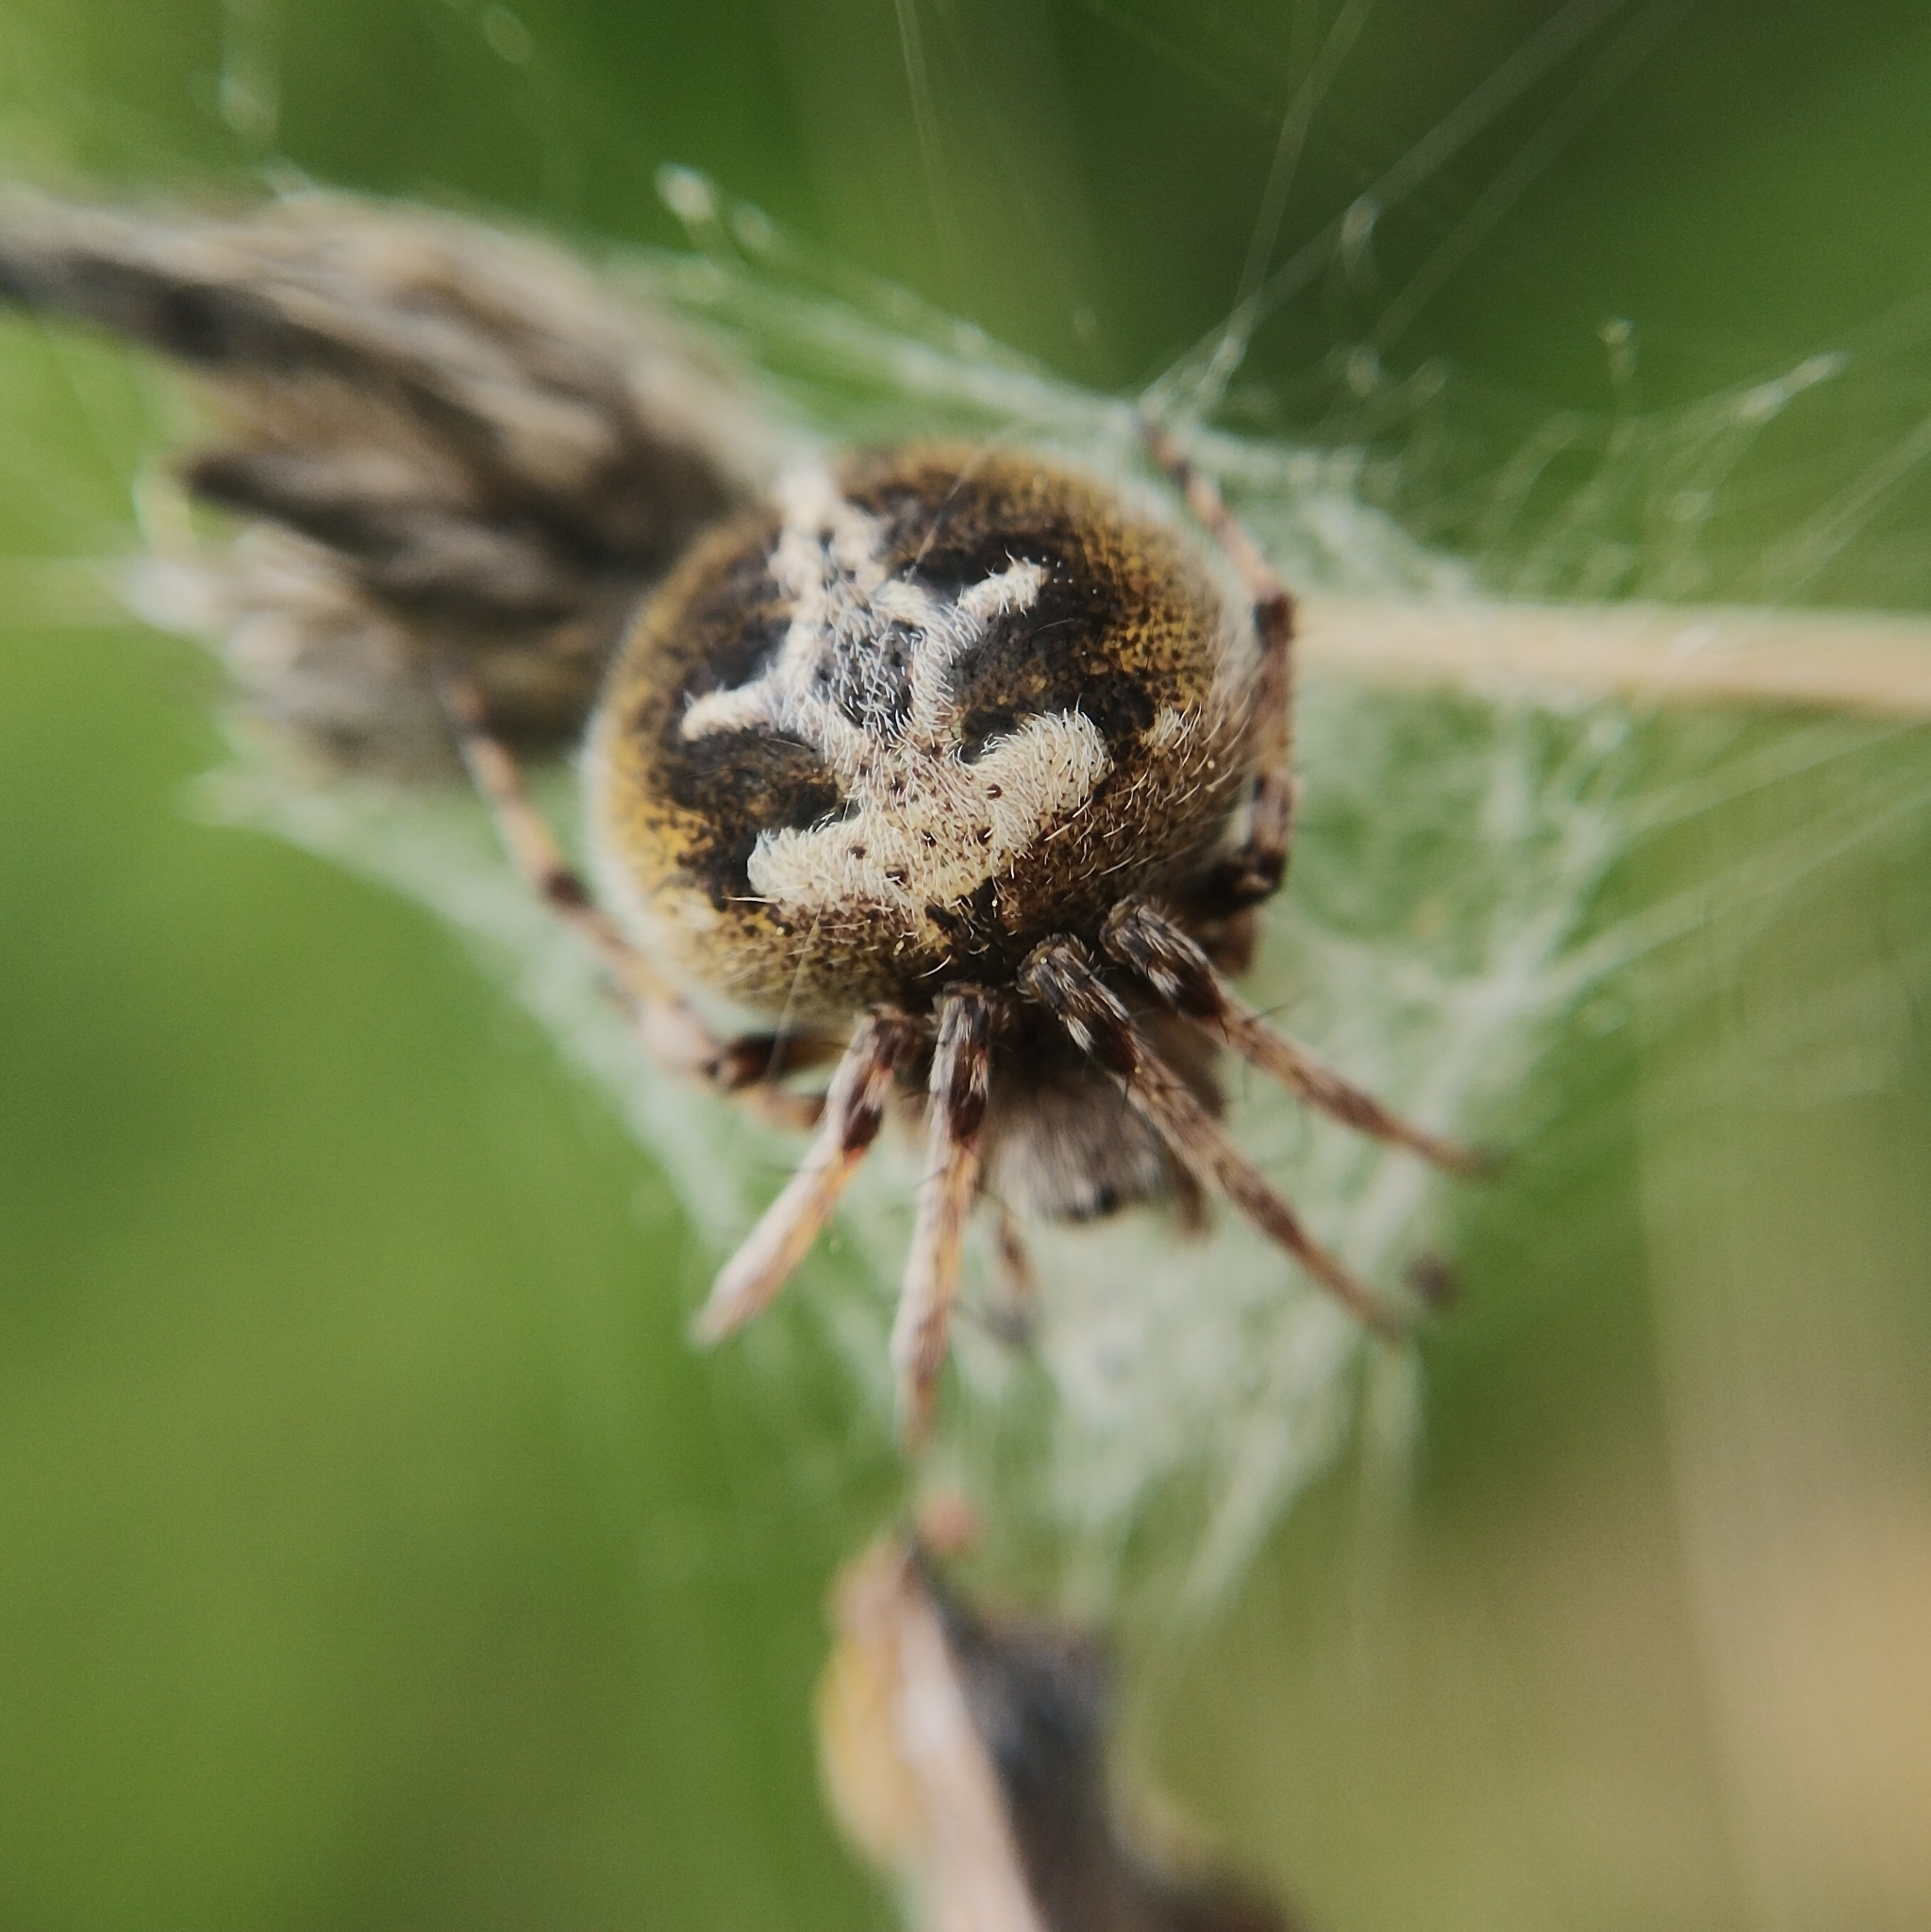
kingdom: Animalia
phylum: Arthropoda
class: Arachnida
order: Araneae
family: Araneidae
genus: Agalenatea
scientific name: Agalenatea redii
